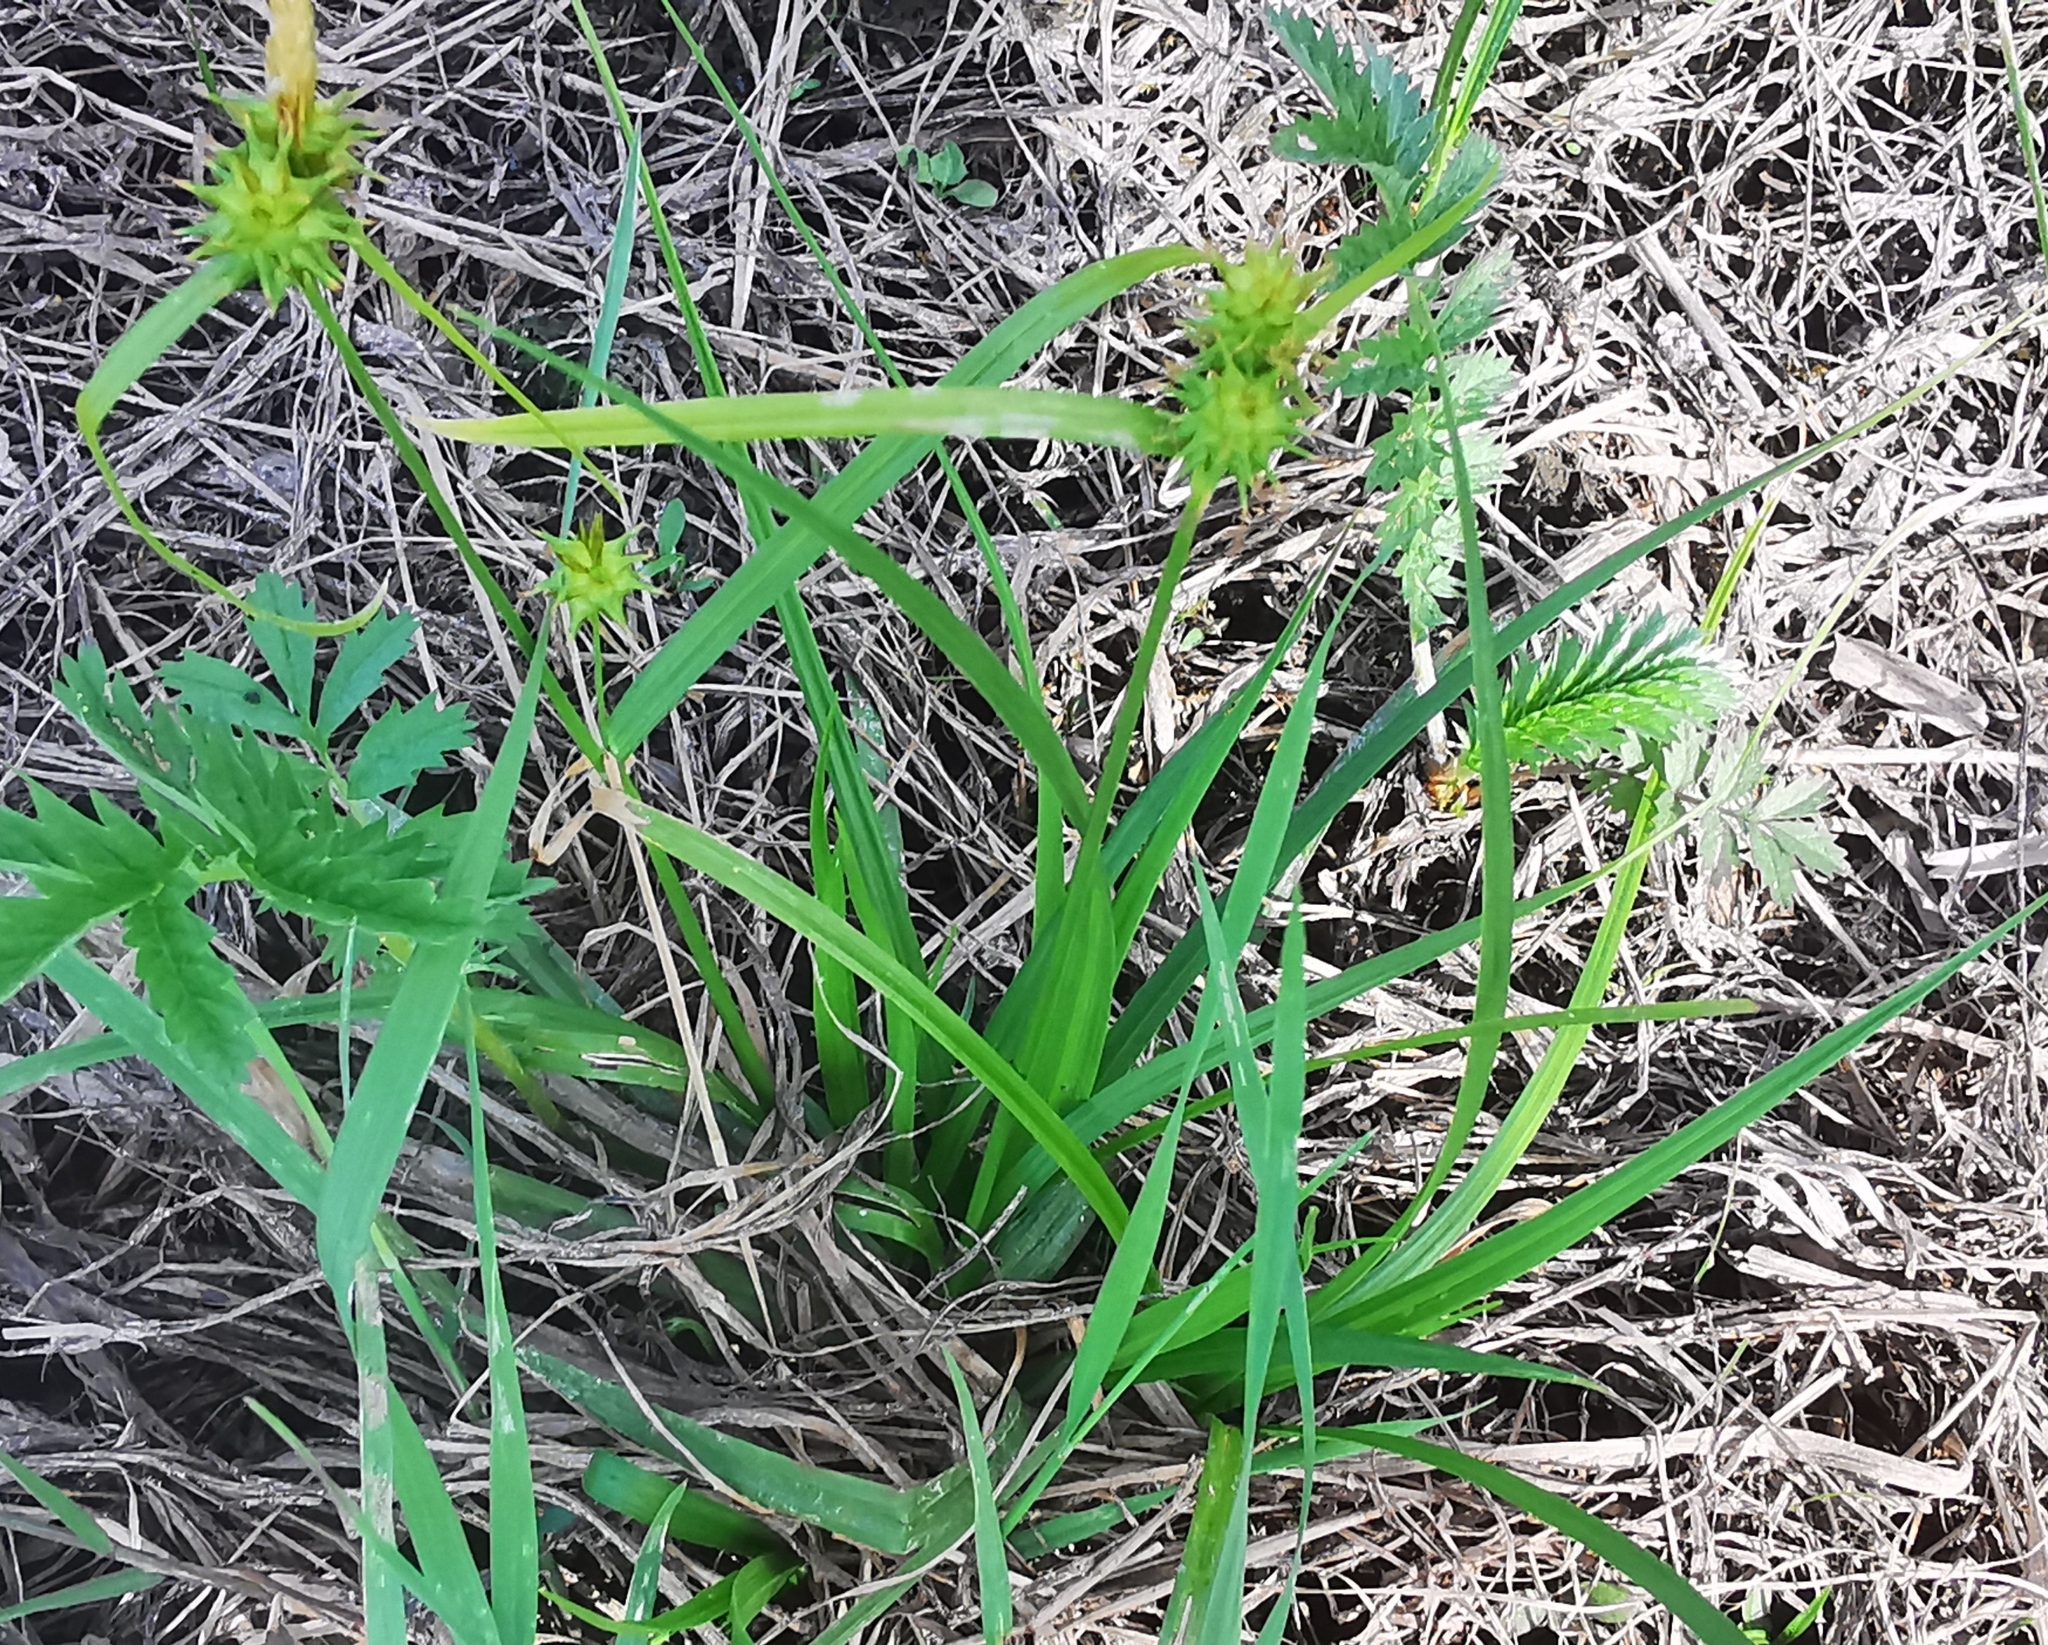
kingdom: Plantae
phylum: Tracheophyta
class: Liliopsida
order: Poales
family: Cyperaceae
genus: Carex
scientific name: Carex flava
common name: Large yellow-sedge
